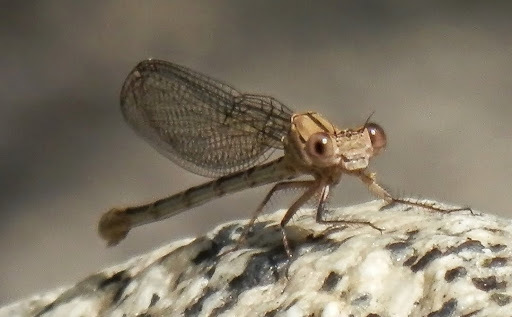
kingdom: Animalia
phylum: Arthropoda
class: Insecta
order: Odonata
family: Coenagrionidae
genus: Argia
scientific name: Argia emma
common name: Emma's dancer
